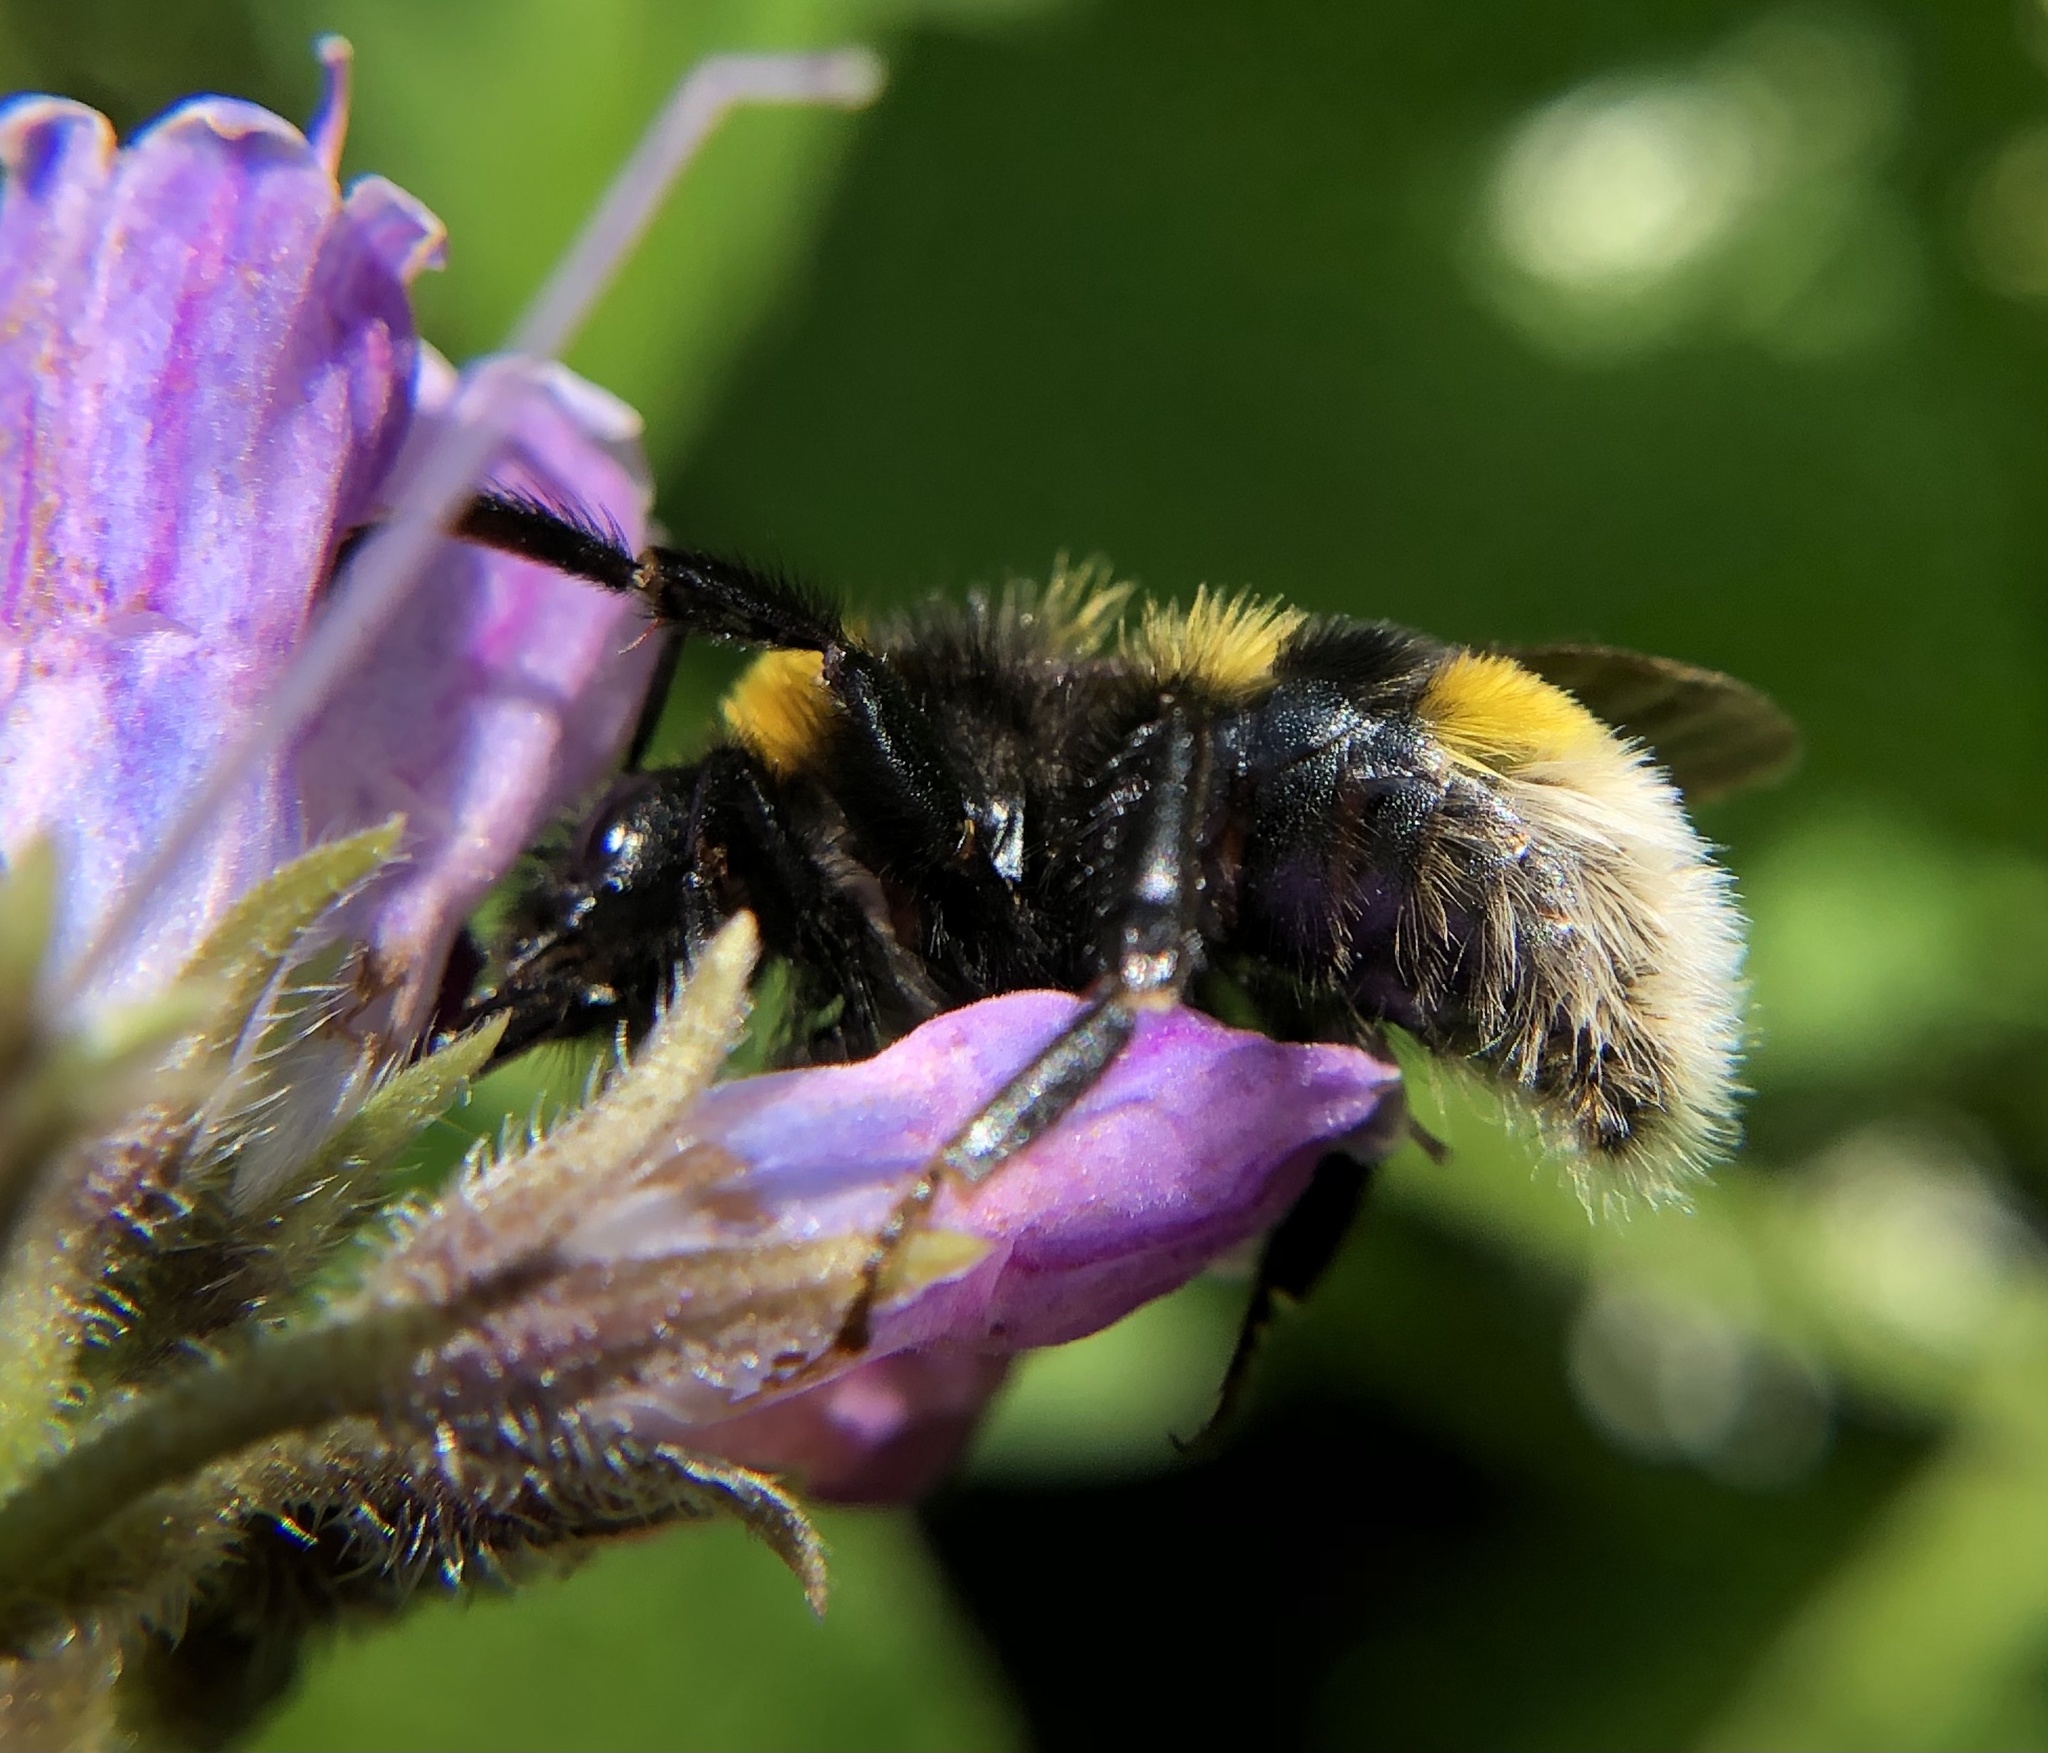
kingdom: Animalia
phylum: Arthropoda
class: Insecta
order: Hymenoptera
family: Apidae
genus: Bombus
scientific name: Bombus vestalis
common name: Vestal cuckoo bee
